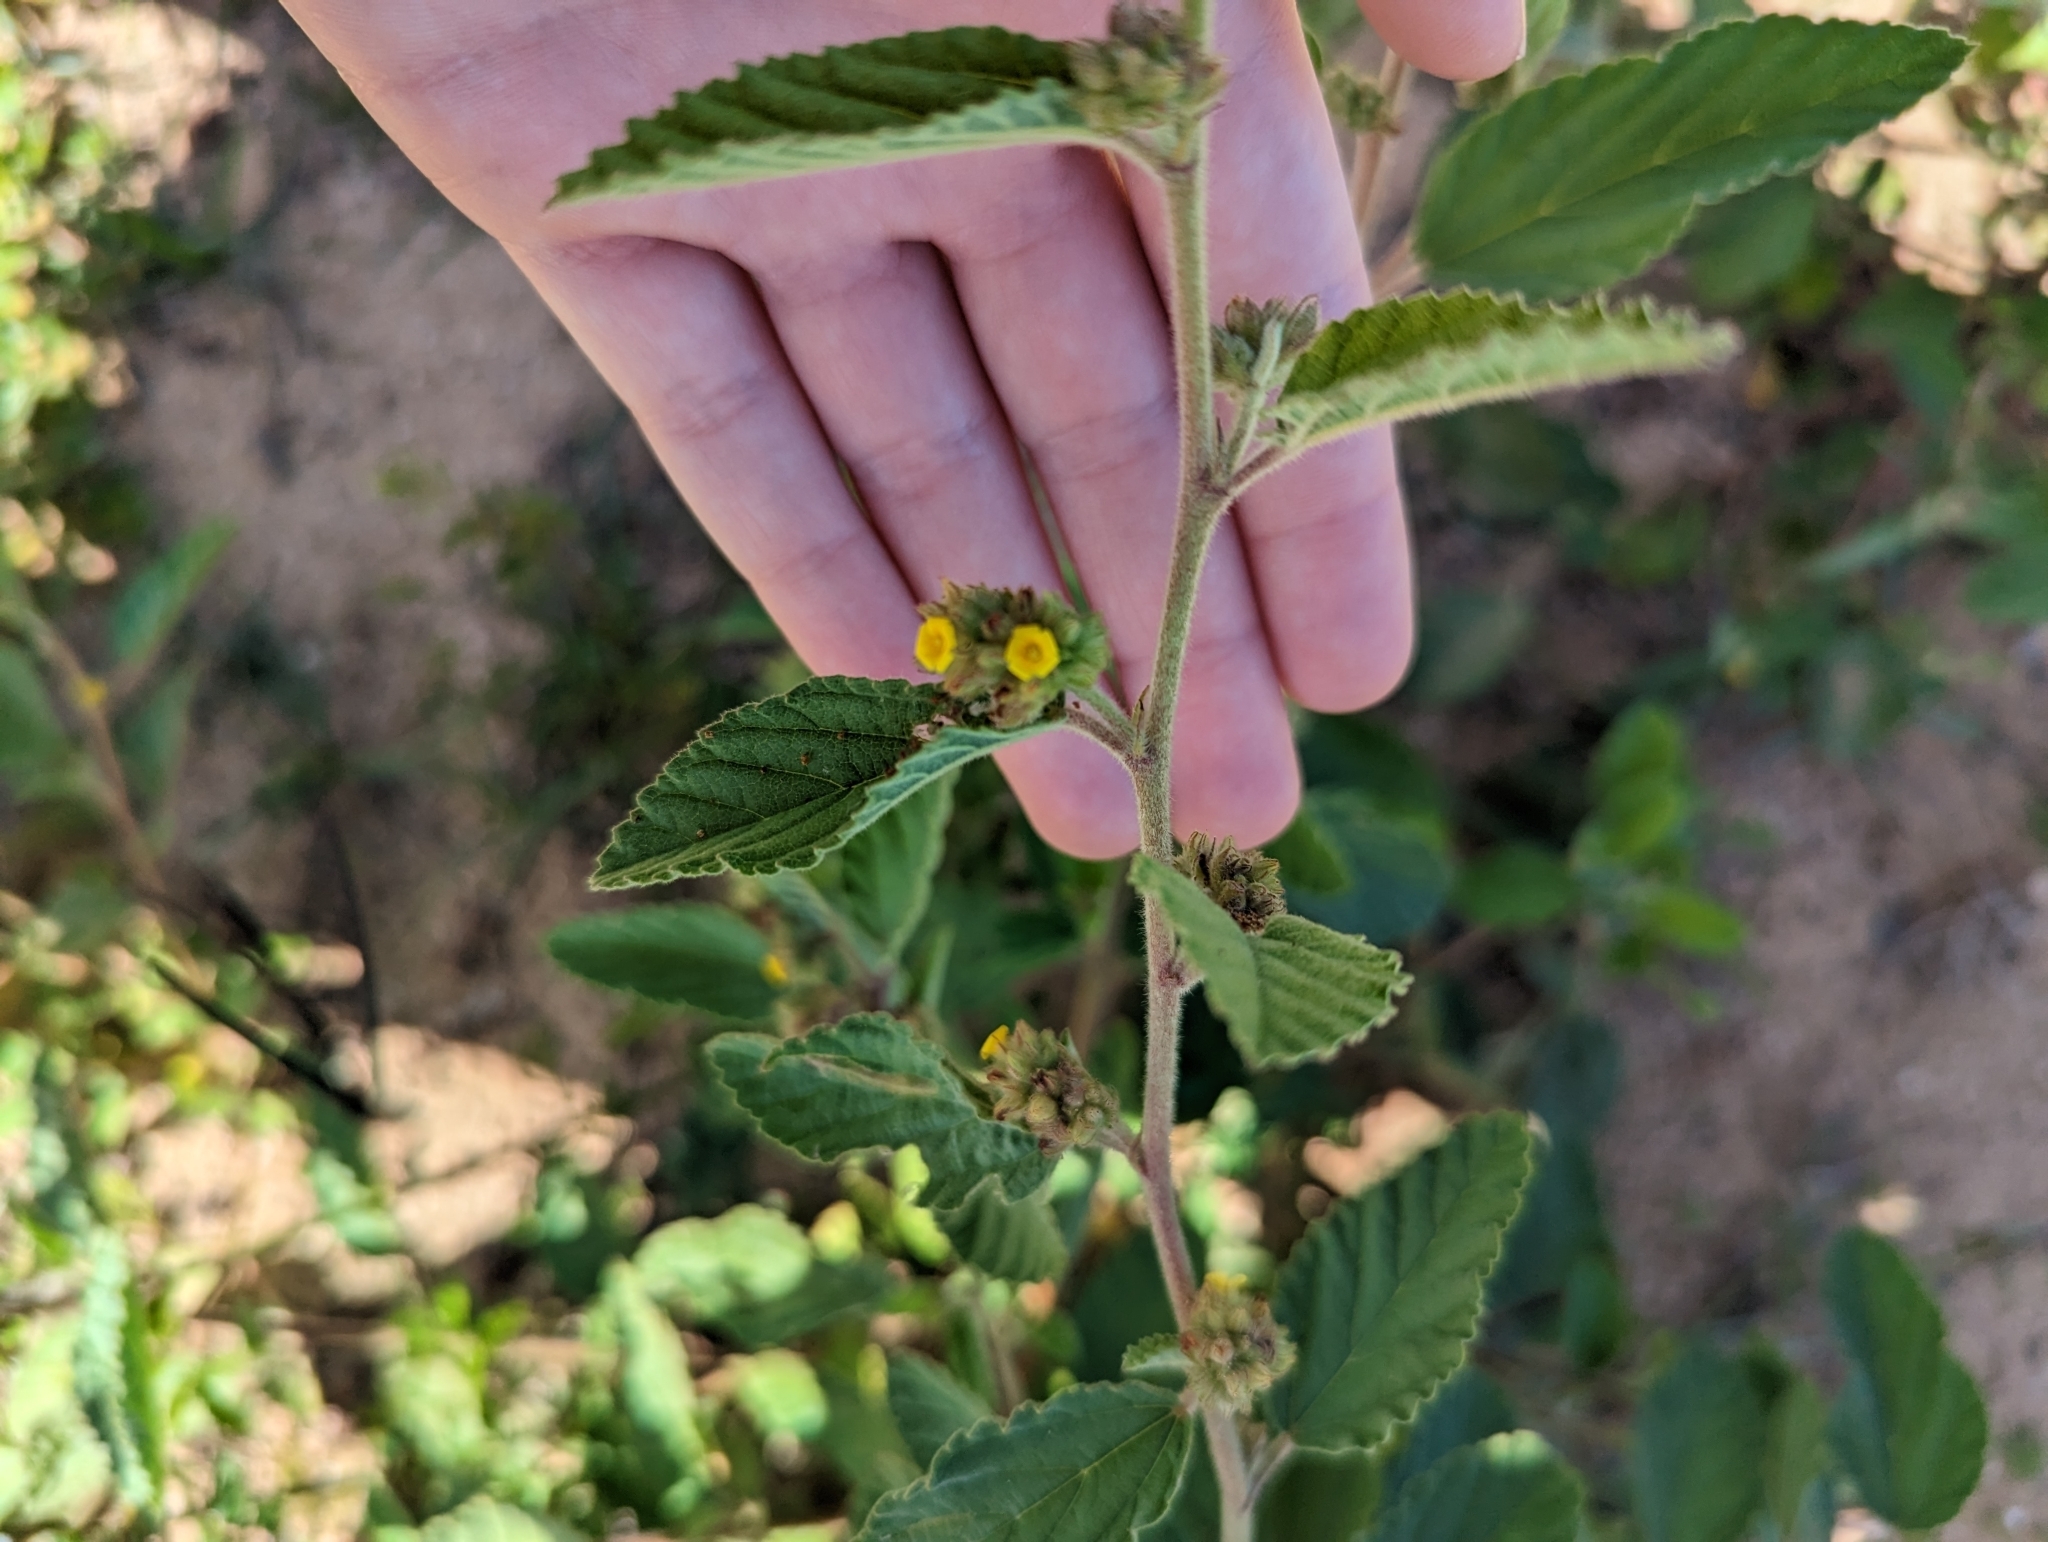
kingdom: Plantae
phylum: Tracheophyta
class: Magnoliopsida
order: Malvales
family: Malvaceae
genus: Waltheria
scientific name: Waltheria indica
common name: Leather-coat
